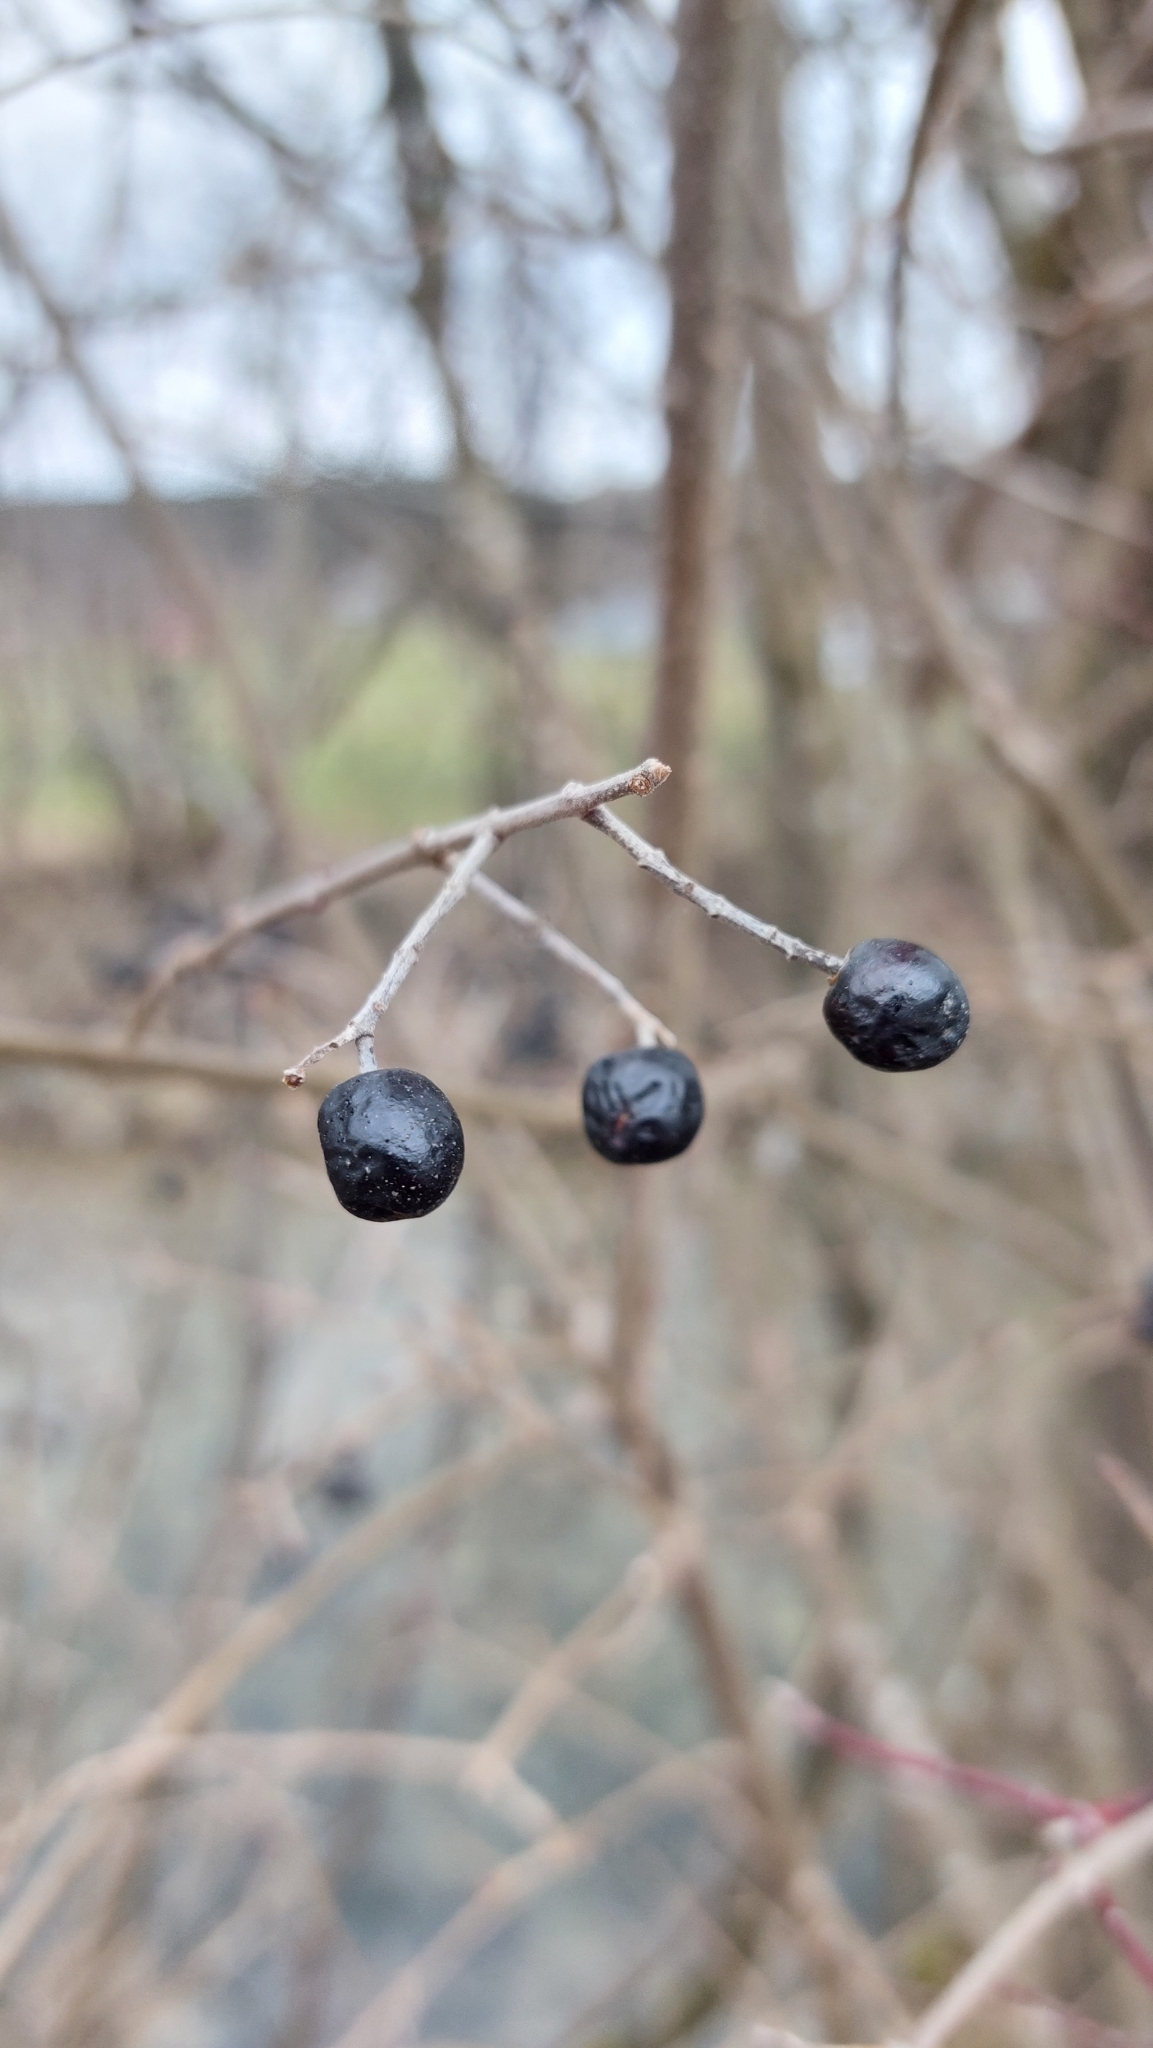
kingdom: Plantae
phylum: Tracheophyta
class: Magnoliopsida
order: Lamiales
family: Oleaceae
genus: Ligustrum
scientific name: Ligustrum vulgare
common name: Wild privet
